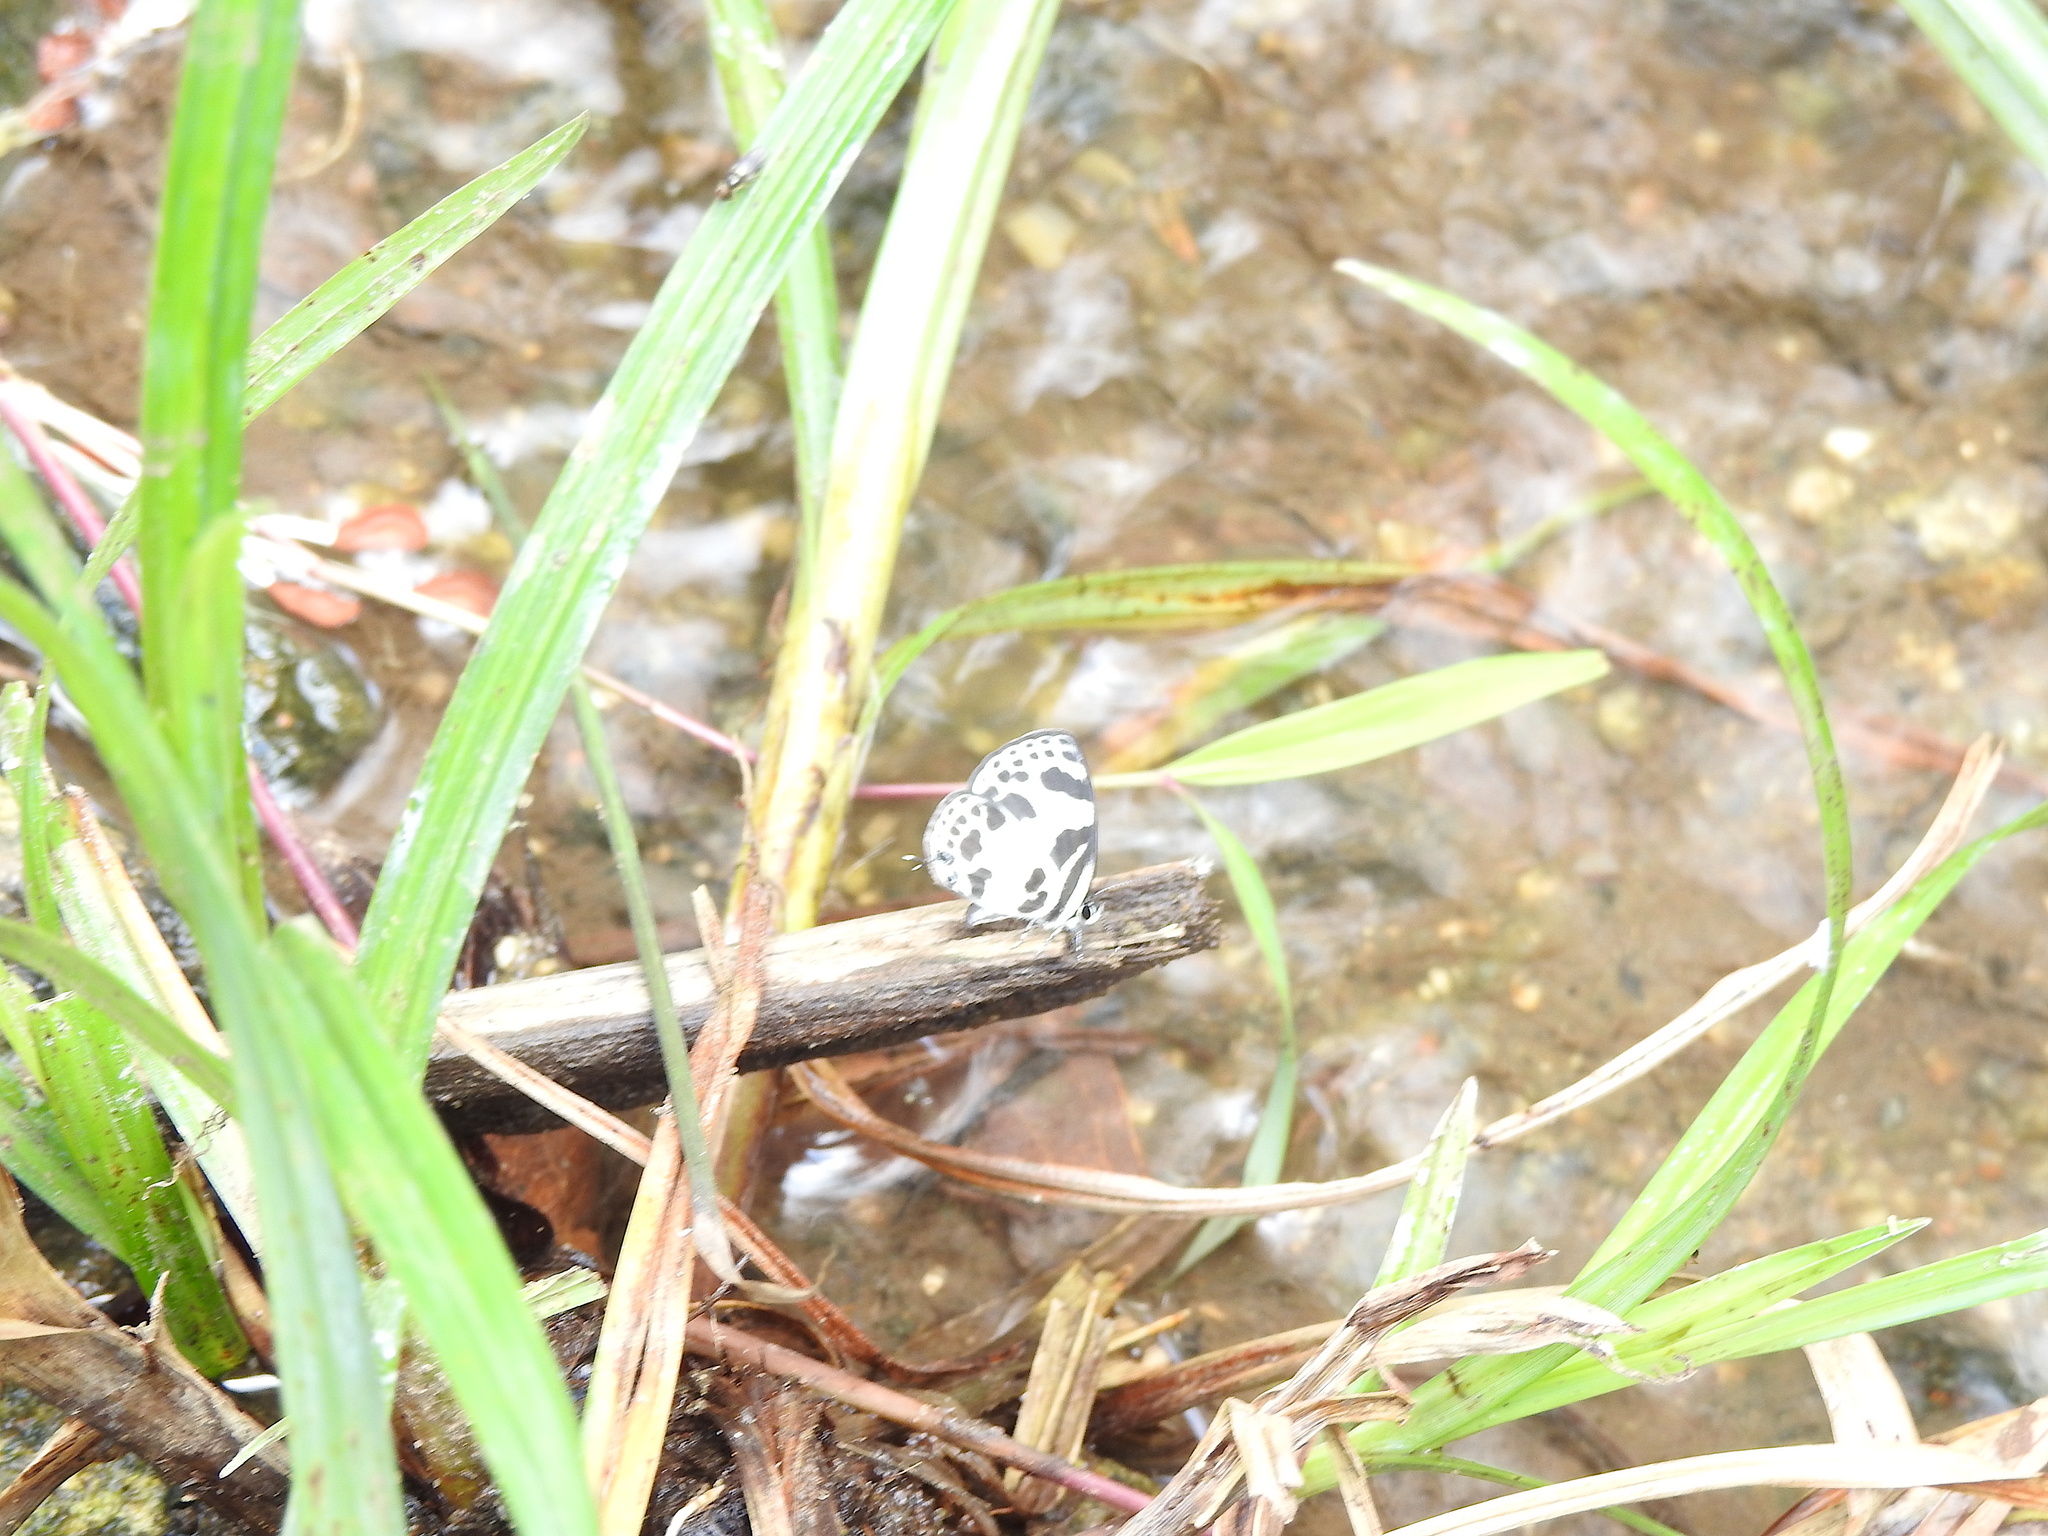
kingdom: Animalia
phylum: Arthropoda
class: Insecta
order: Lepidoptera
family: Lycaenidae
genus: Discolampa
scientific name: Discolampa ethion
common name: Banded blue pierrot
